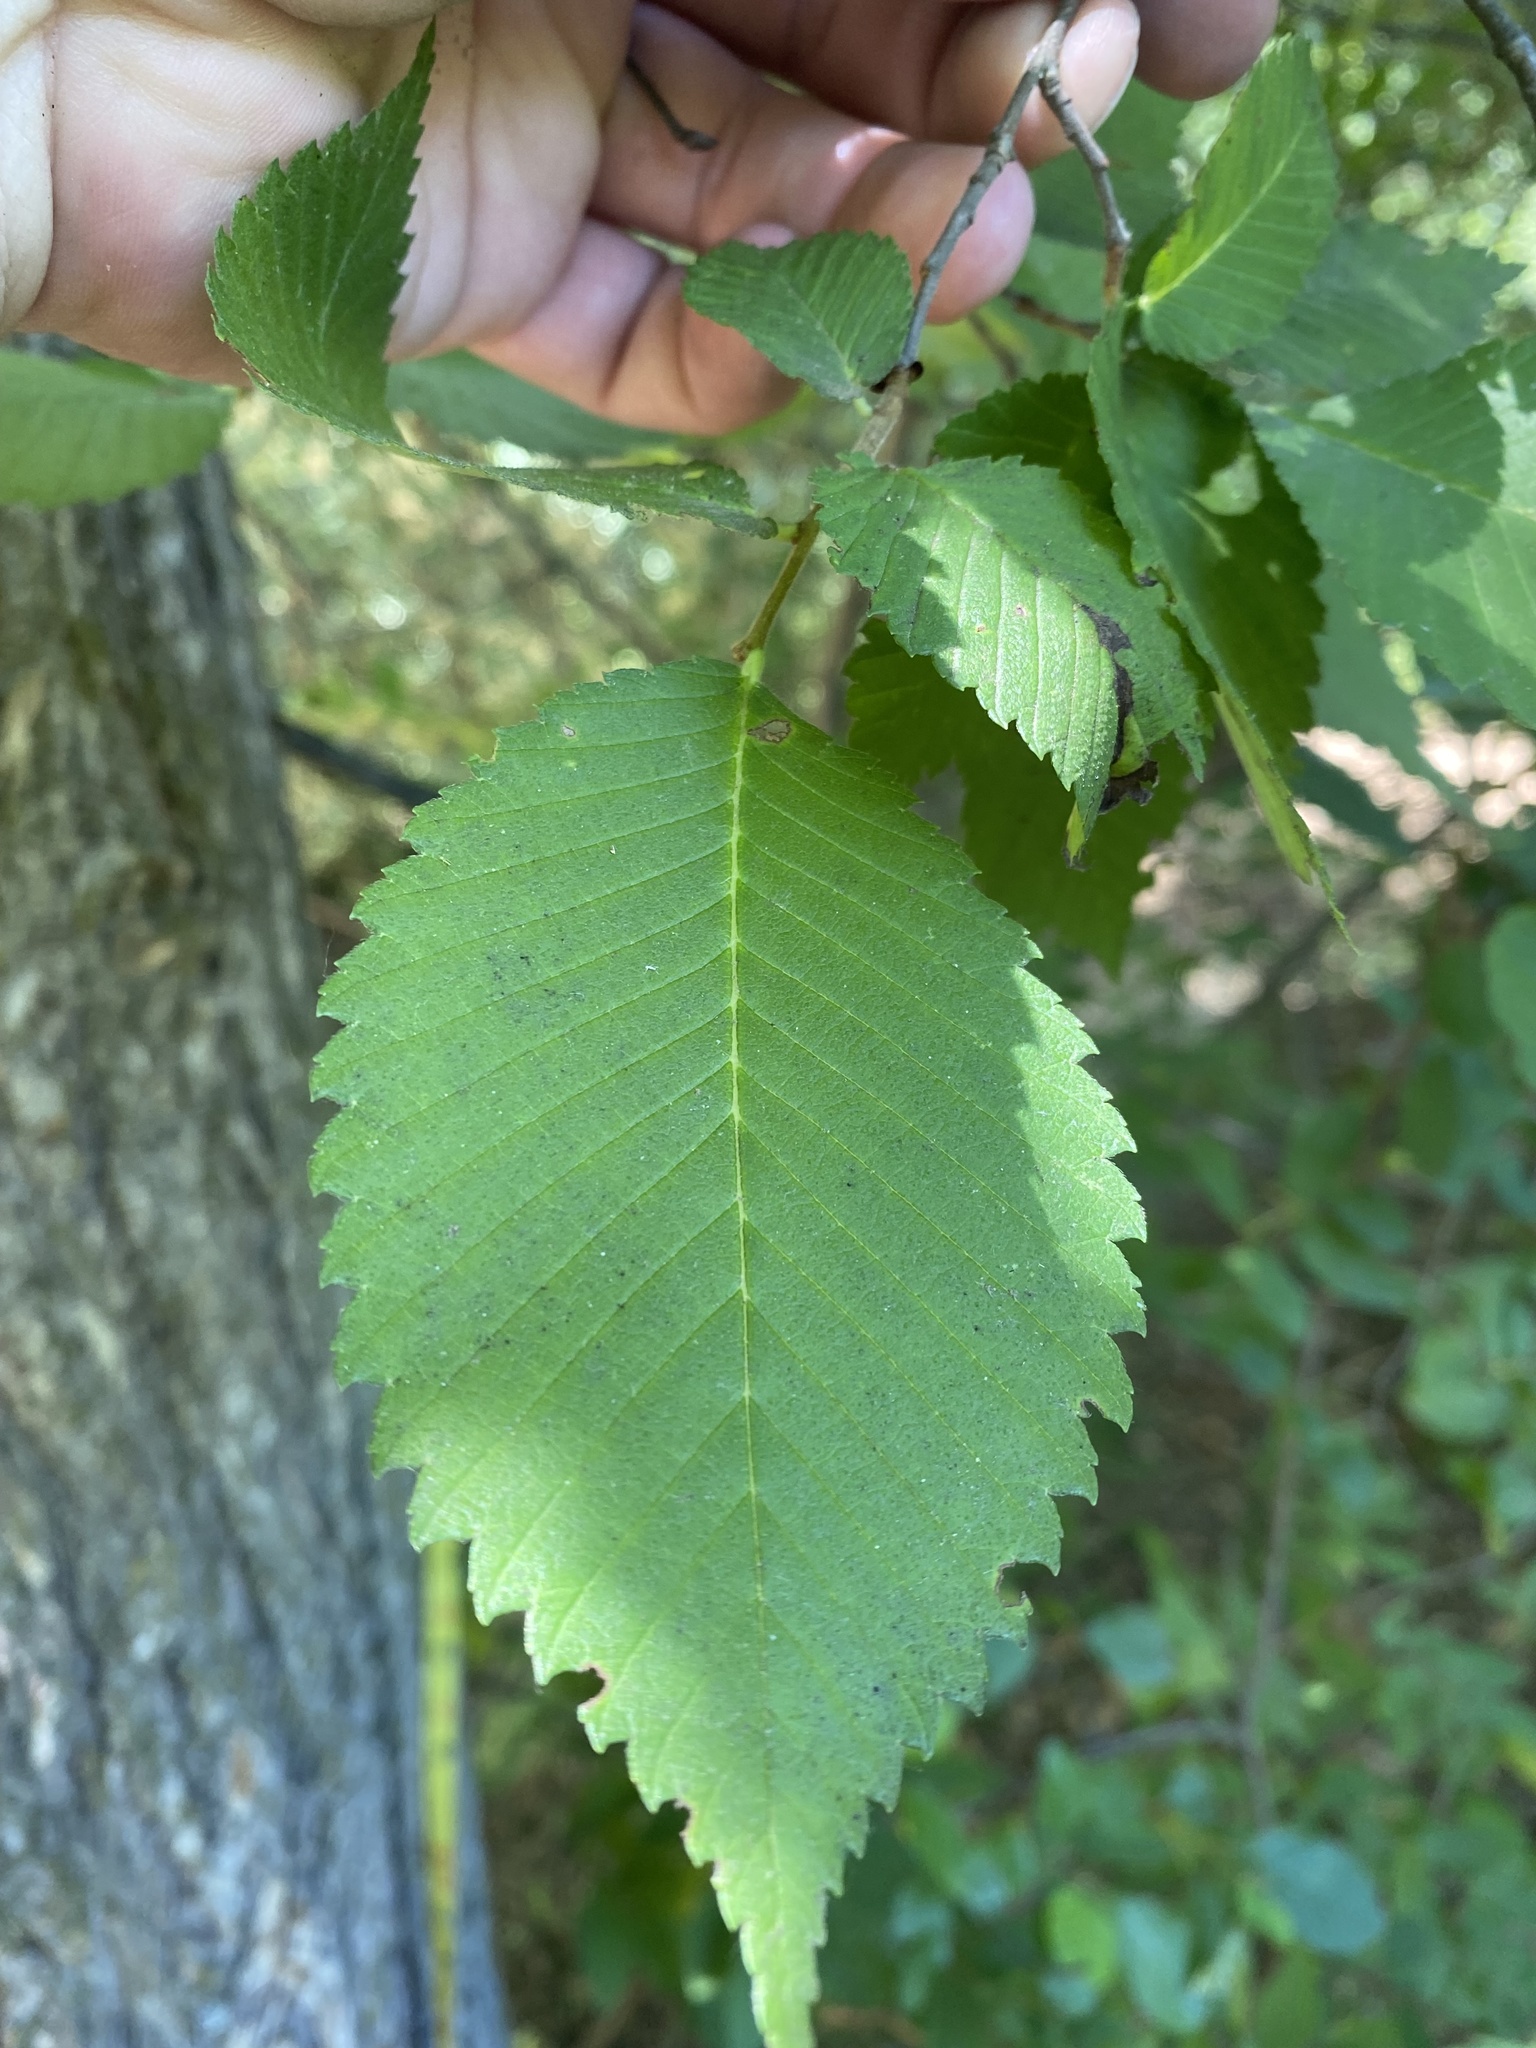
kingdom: Plantae
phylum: Tracheophyta
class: Magnoliopsida
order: Rosales
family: Ulmaceae
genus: Ulmus
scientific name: Ulmus americana
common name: American elm
